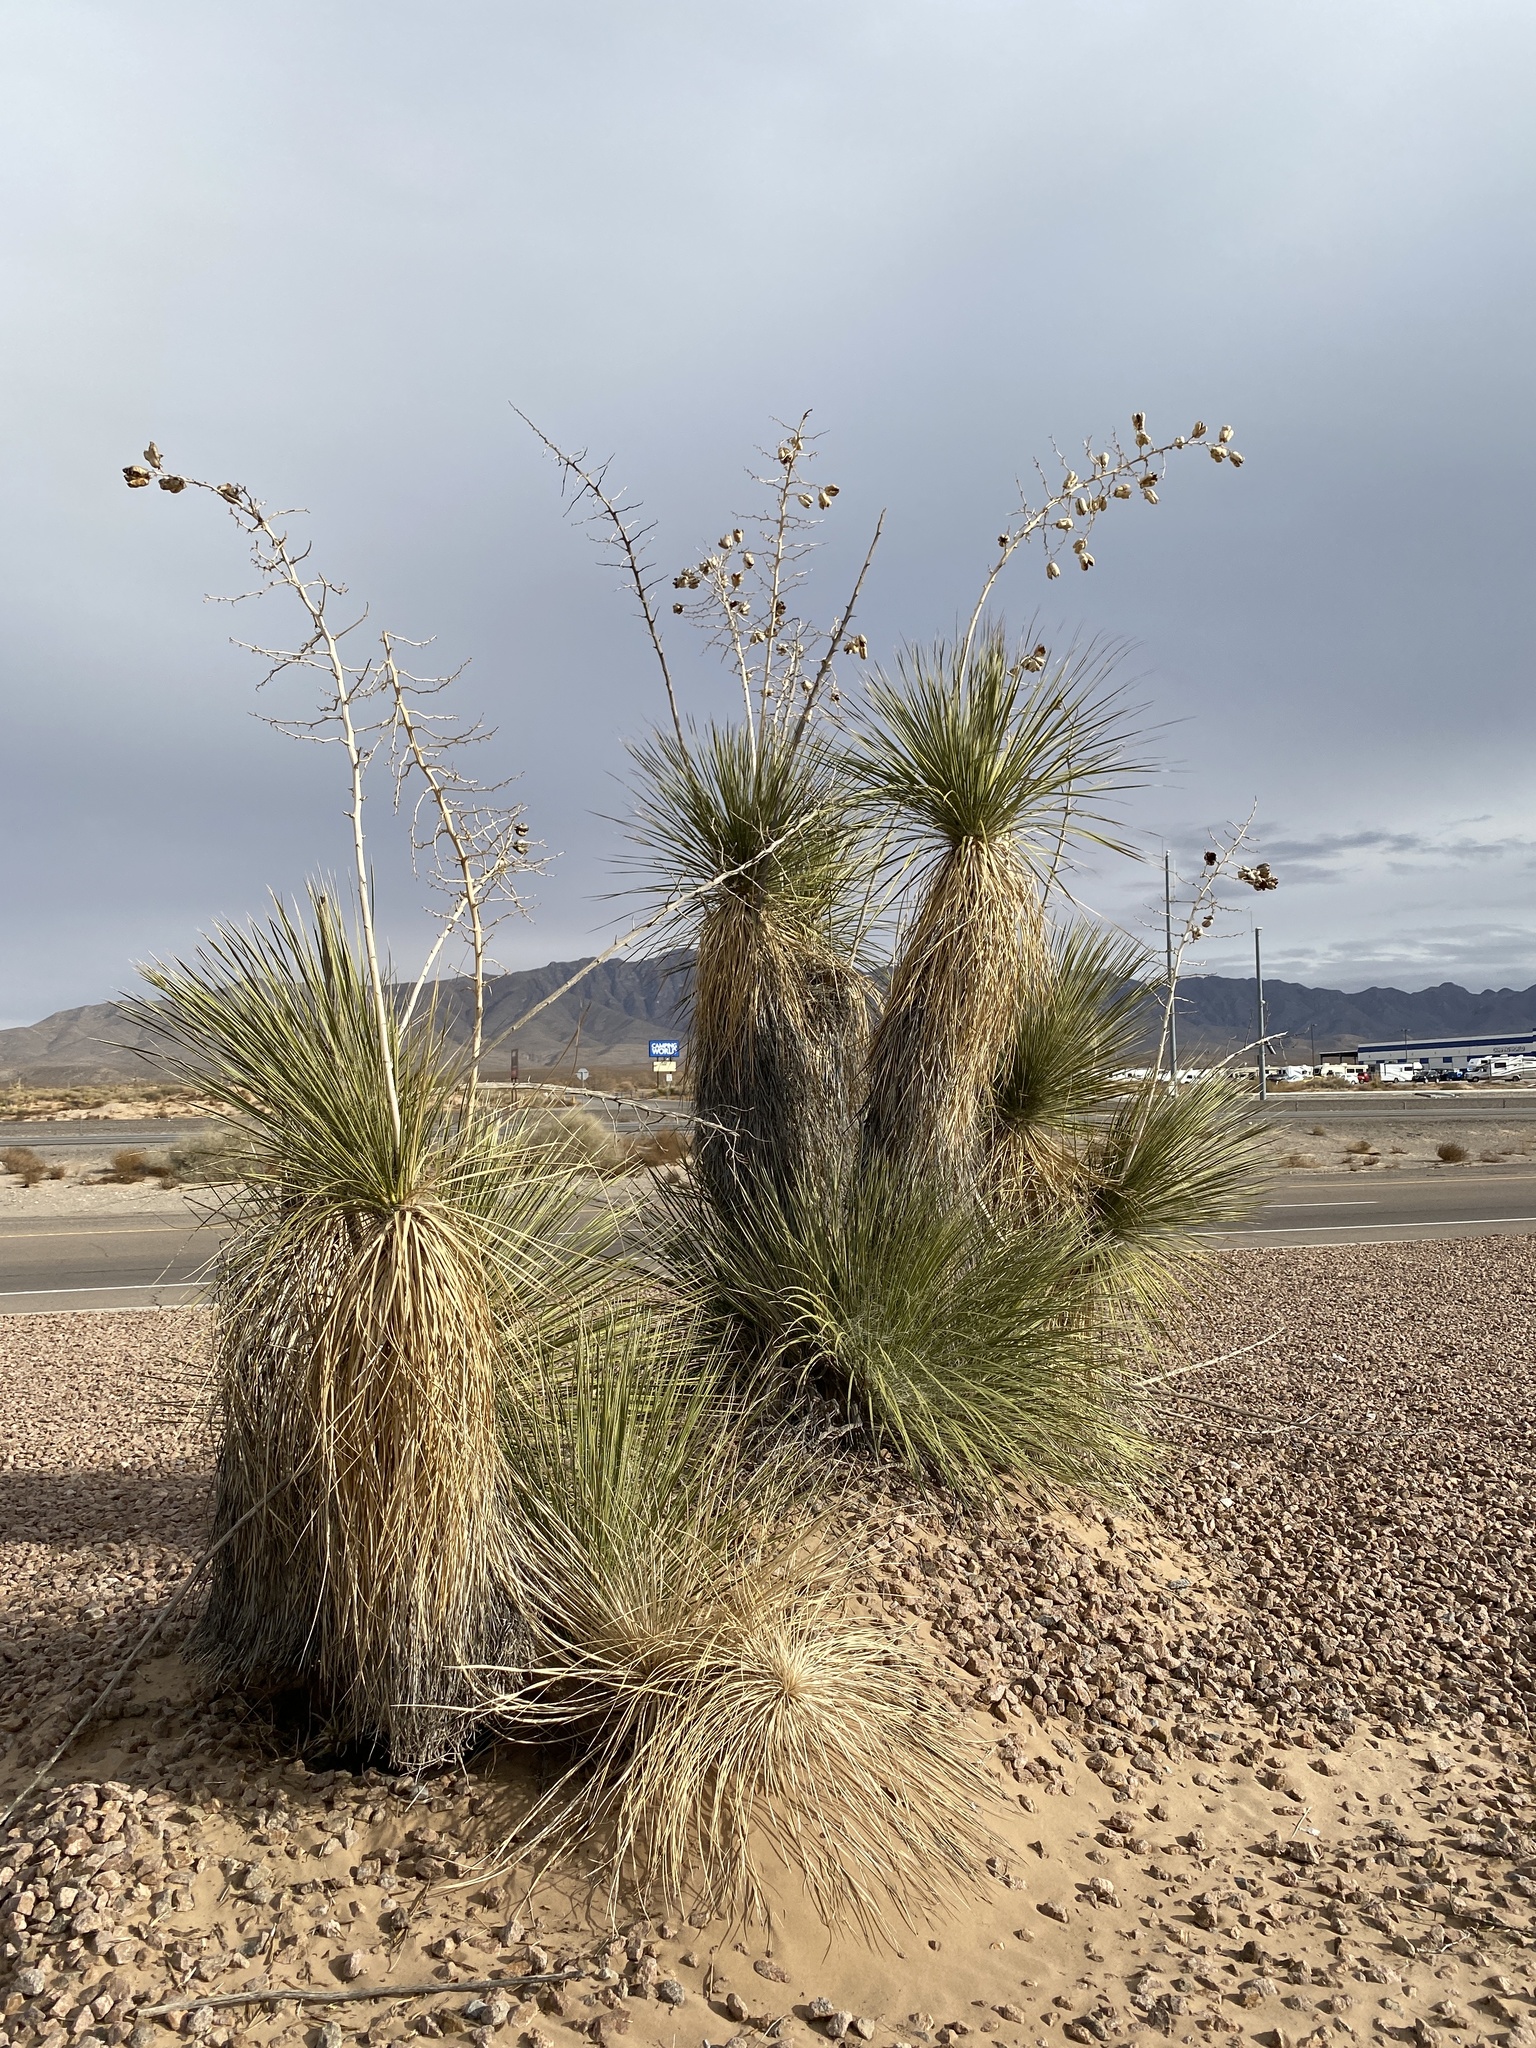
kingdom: Plantae
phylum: Tracheophyta
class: Liliopsida
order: Asparagales
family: Asparagaceae
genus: Yucca
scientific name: Yucca elata
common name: Palmella
